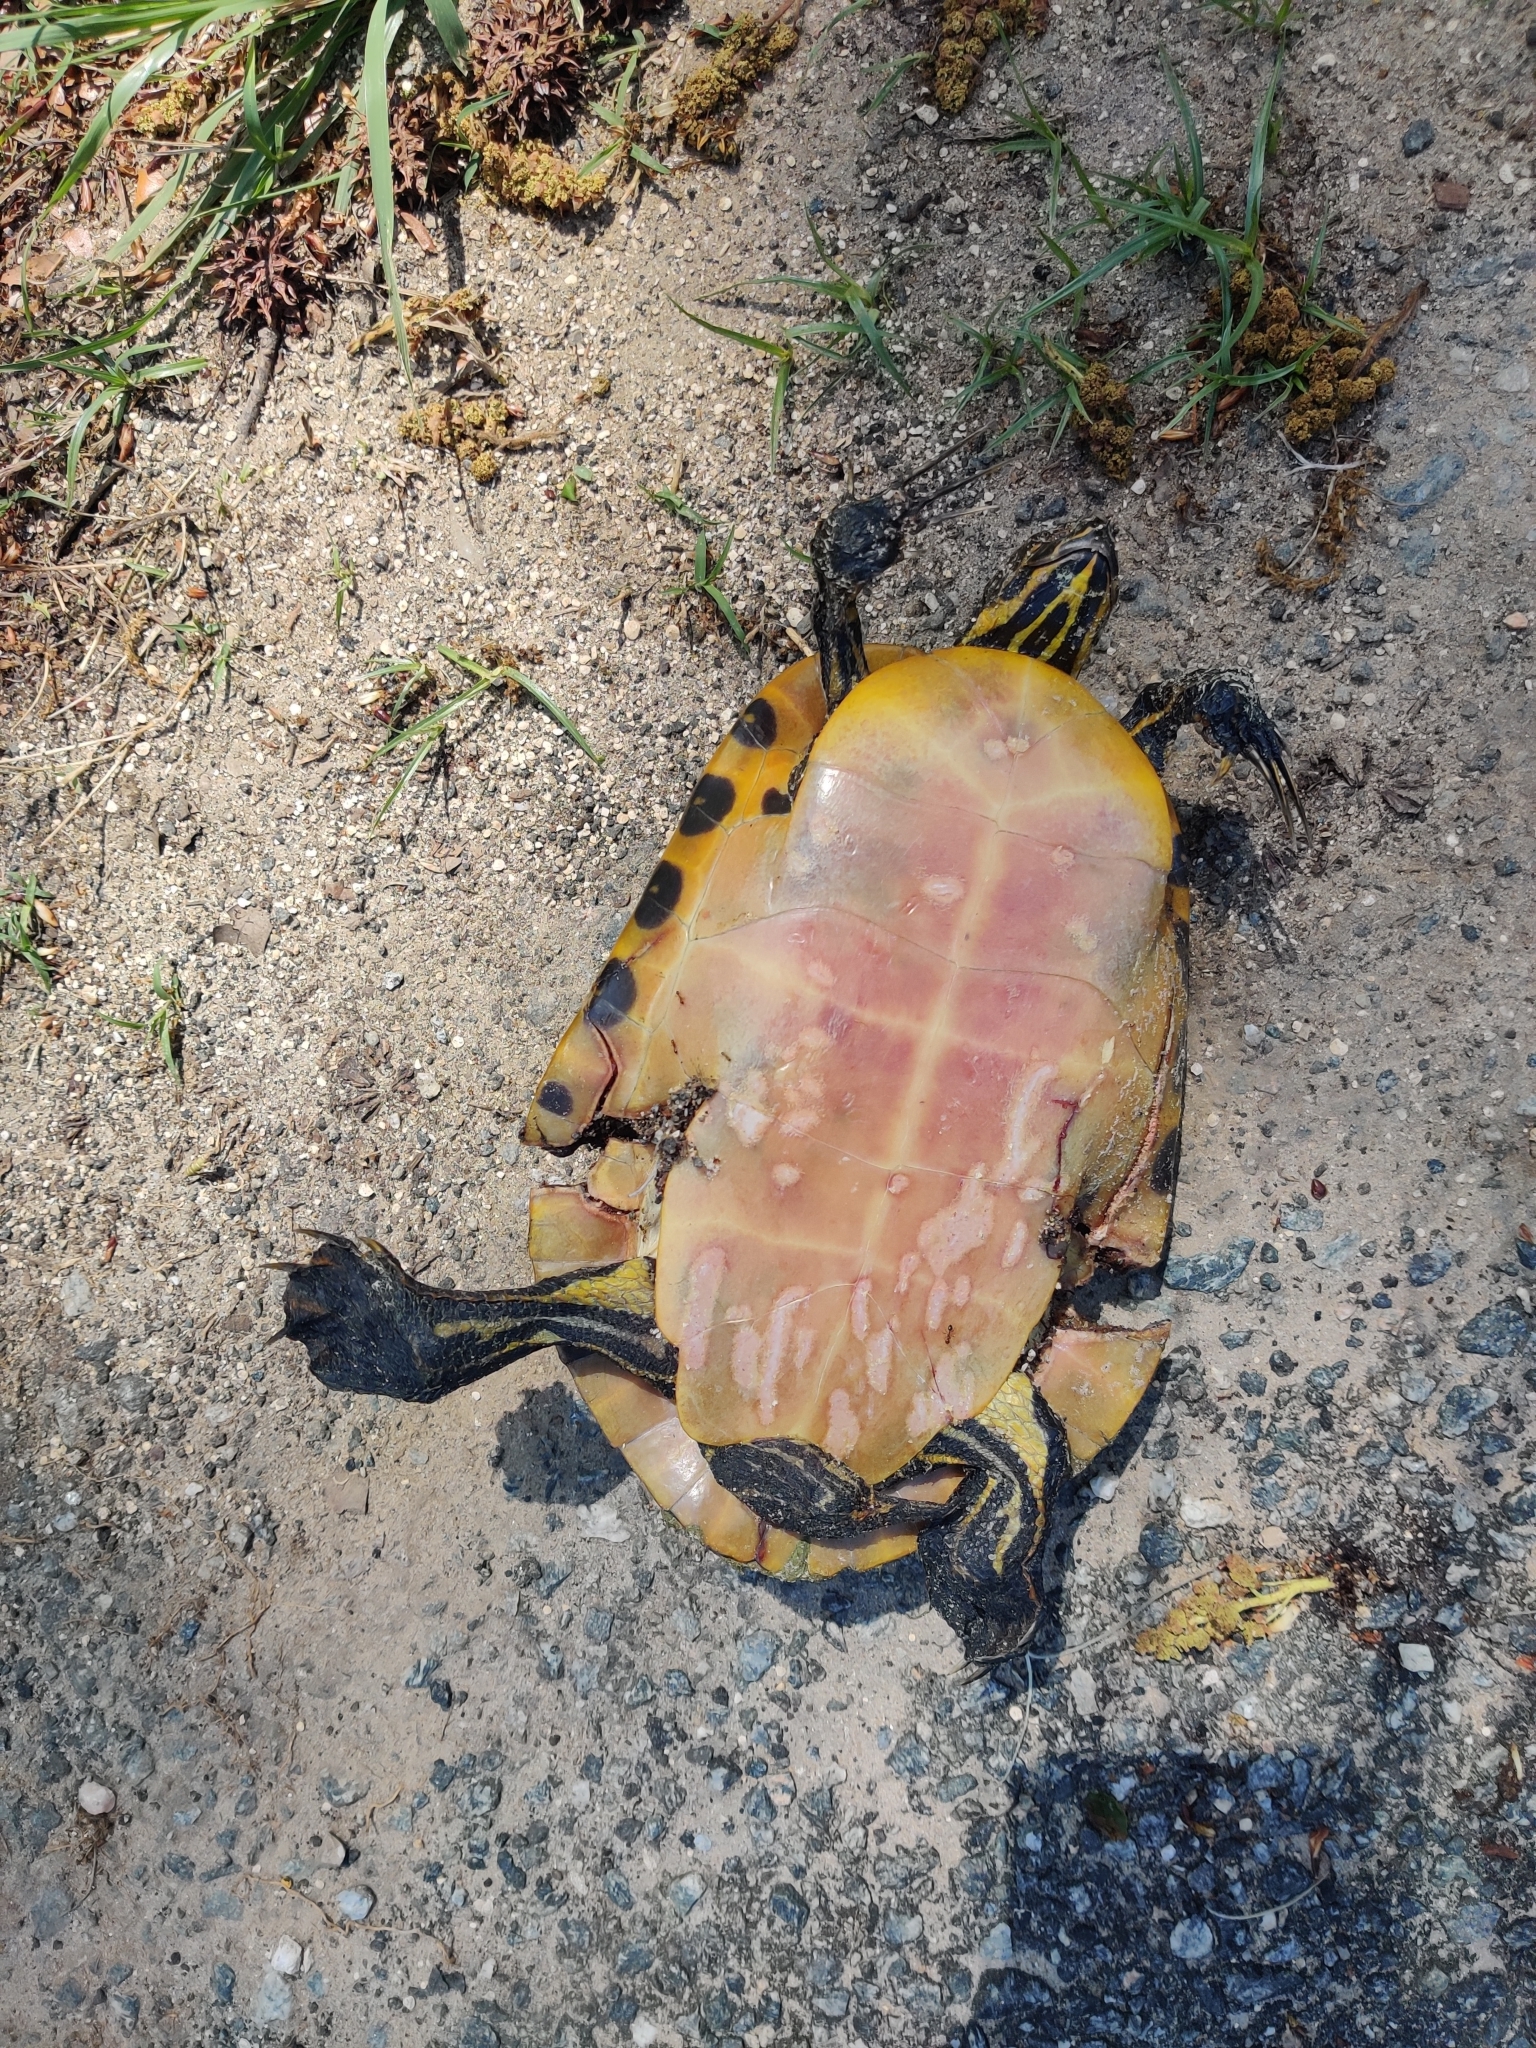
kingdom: Animalia
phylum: Chordata
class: Testudines
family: Emydidae
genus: Pseudemys
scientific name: Pseudemys concinna
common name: Eastern river cooter
